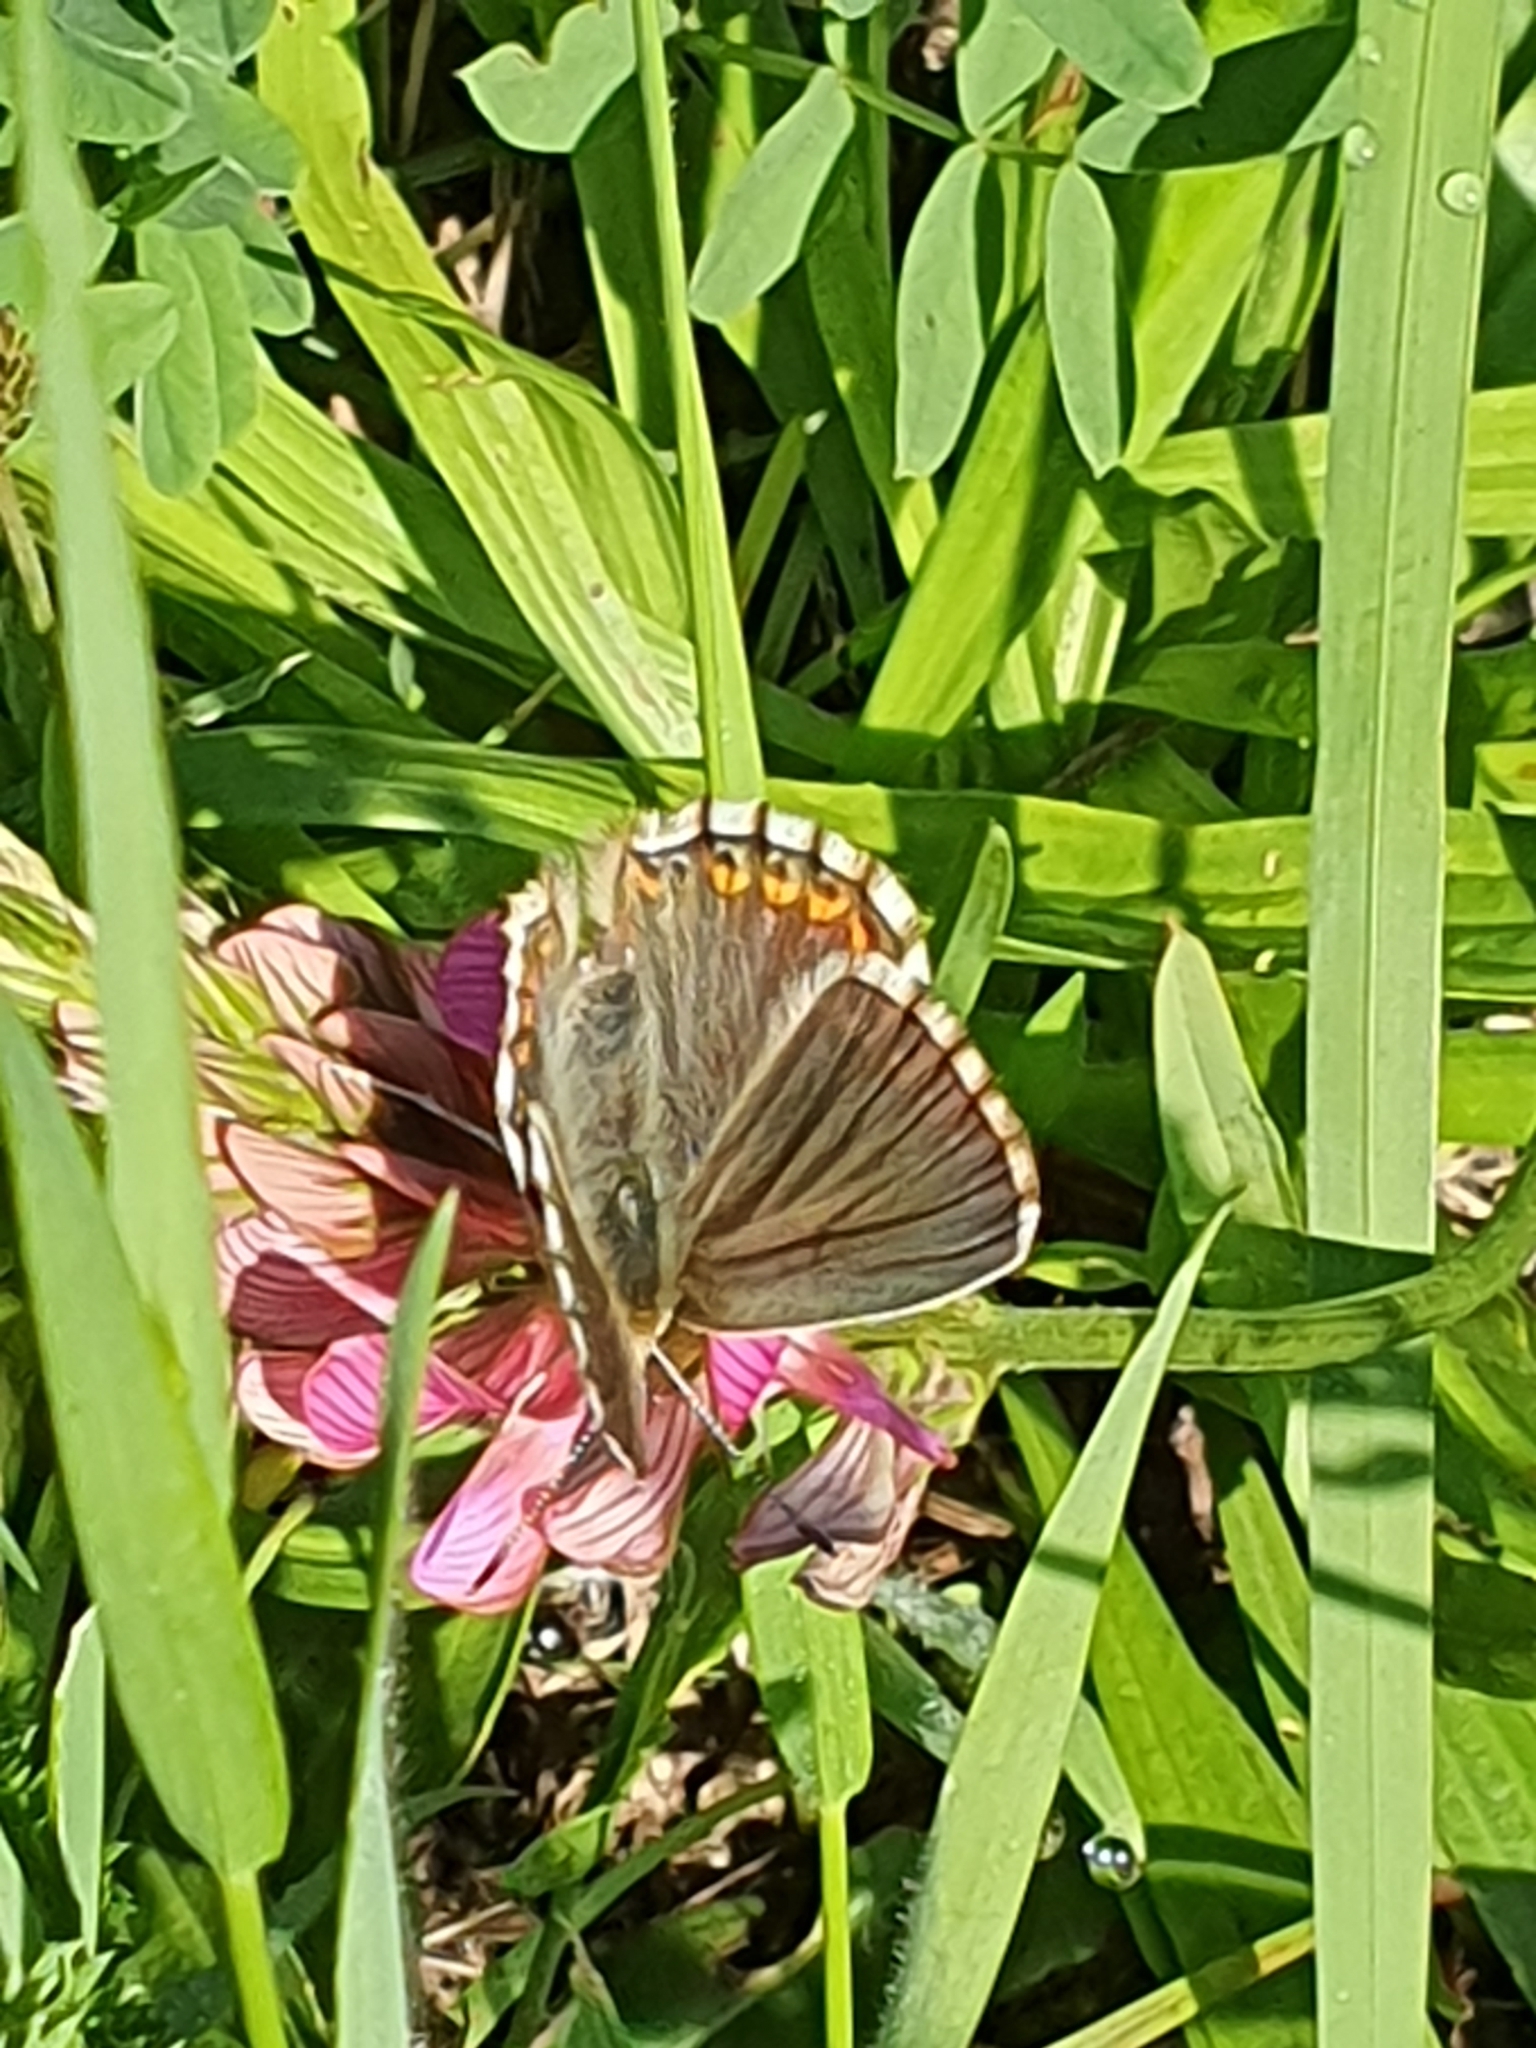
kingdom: Animalia
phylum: Arthropoda
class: Insecta
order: Lepidoptera
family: Lycaenidae
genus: Lysandra
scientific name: Lysandra coridon
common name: Chalkhill blue
